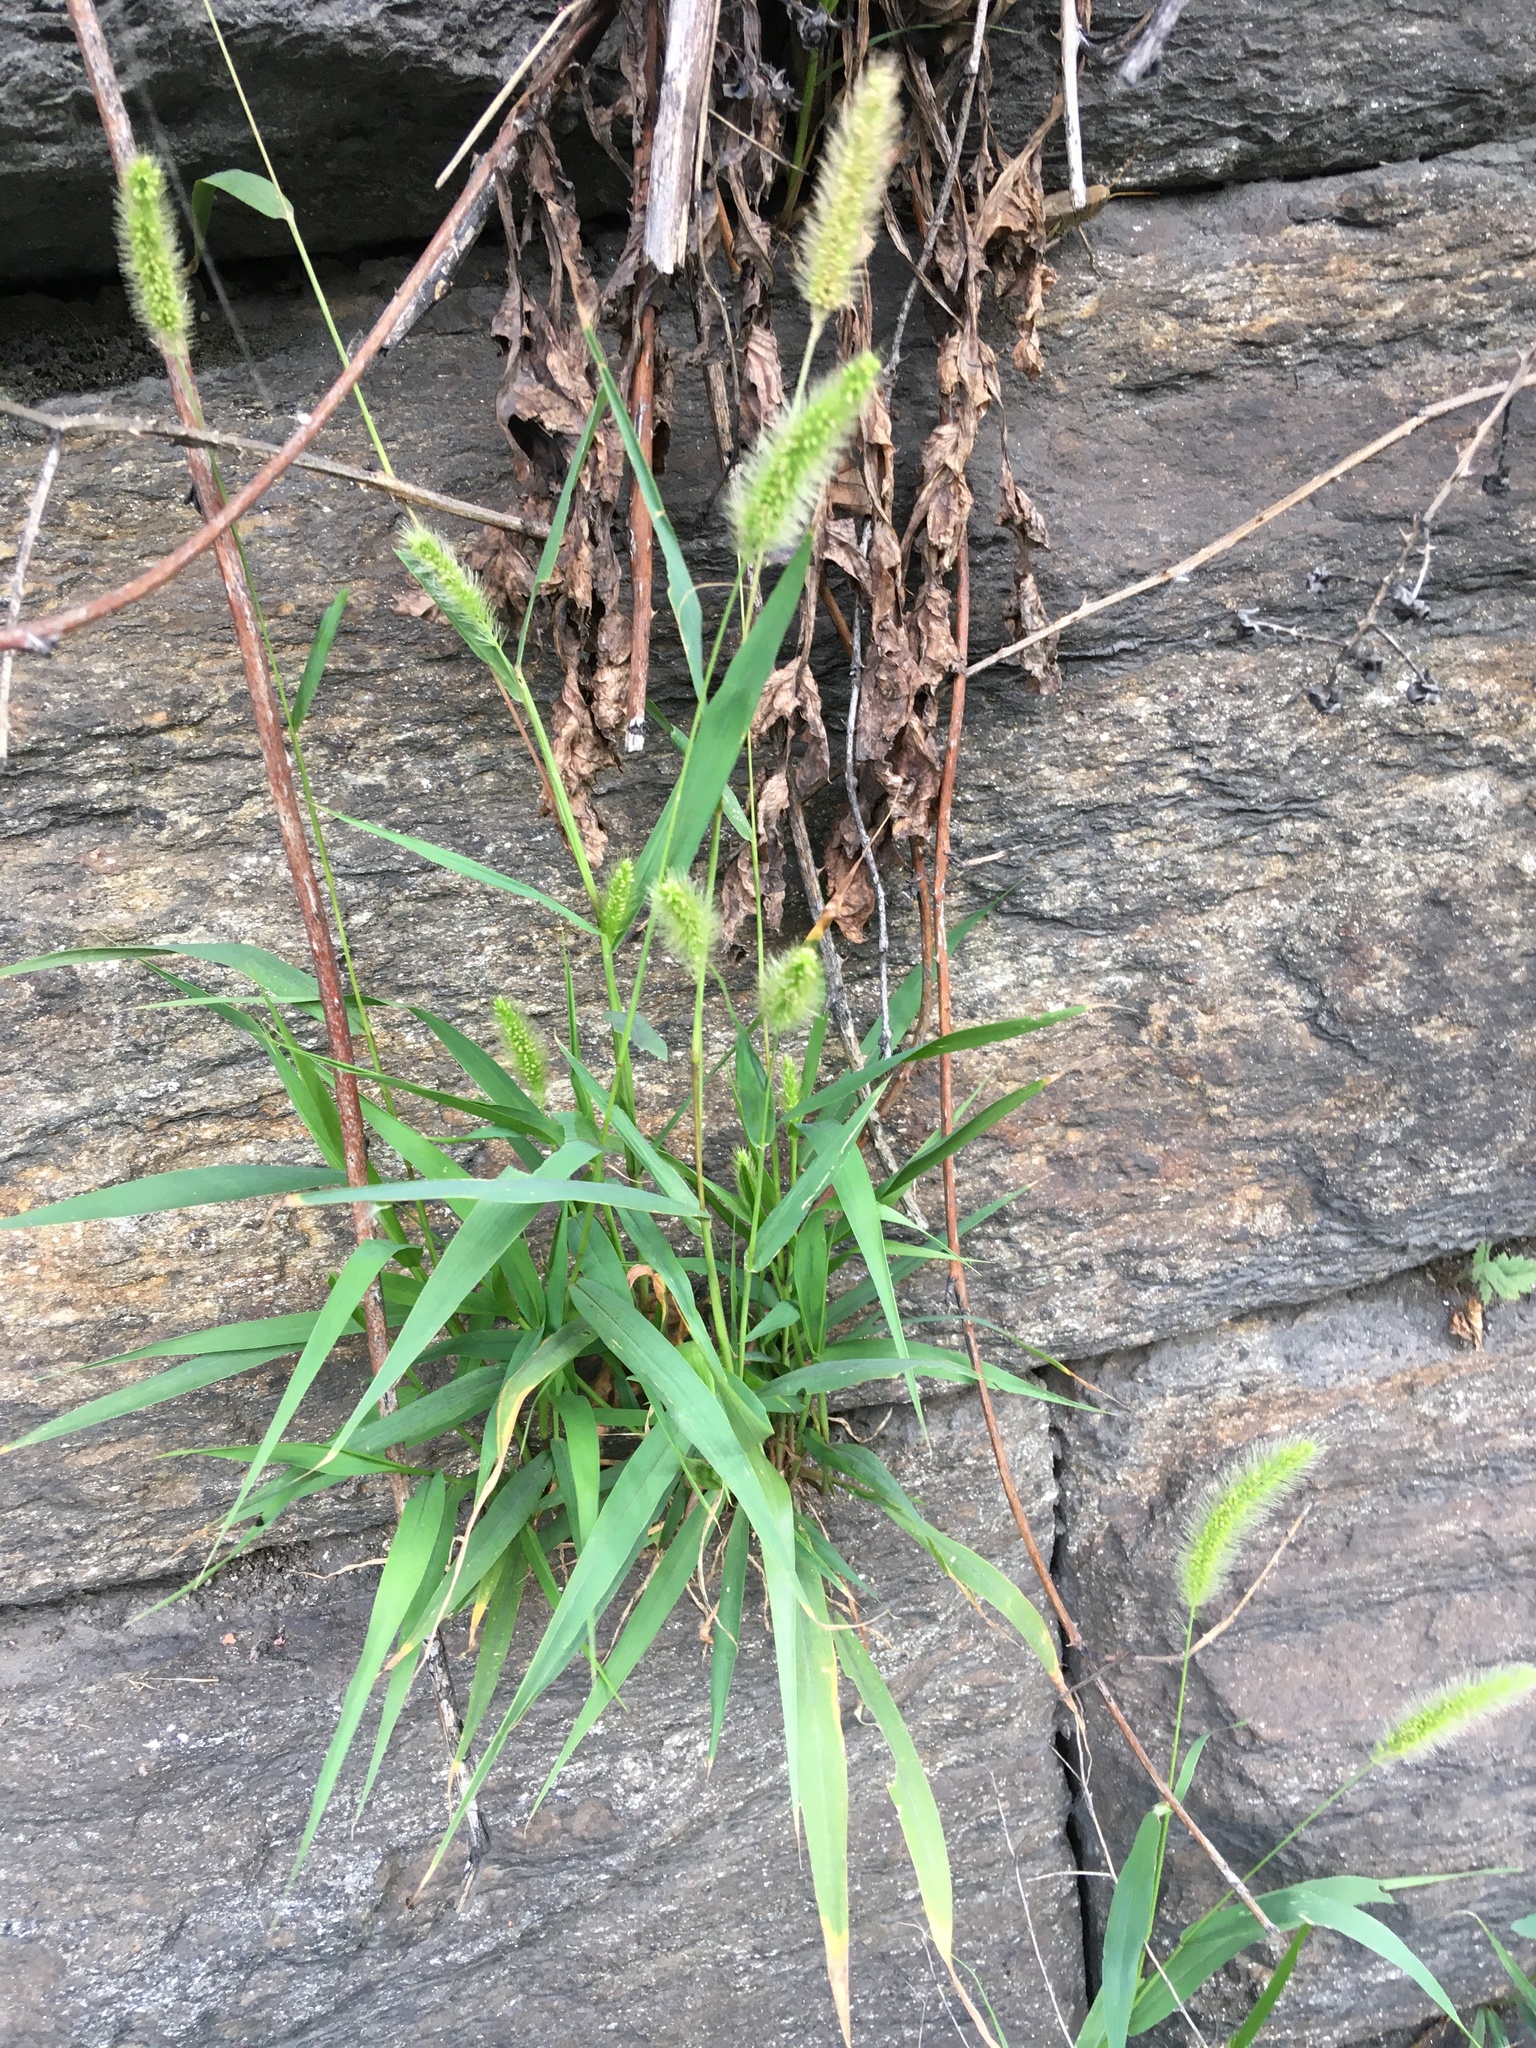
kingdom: Plantae
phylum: Tracheophyta
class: Liliopsida
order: Poales
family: Poaceae
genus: Setaria
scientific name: Setaria viridis
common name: Green bristlegrass
